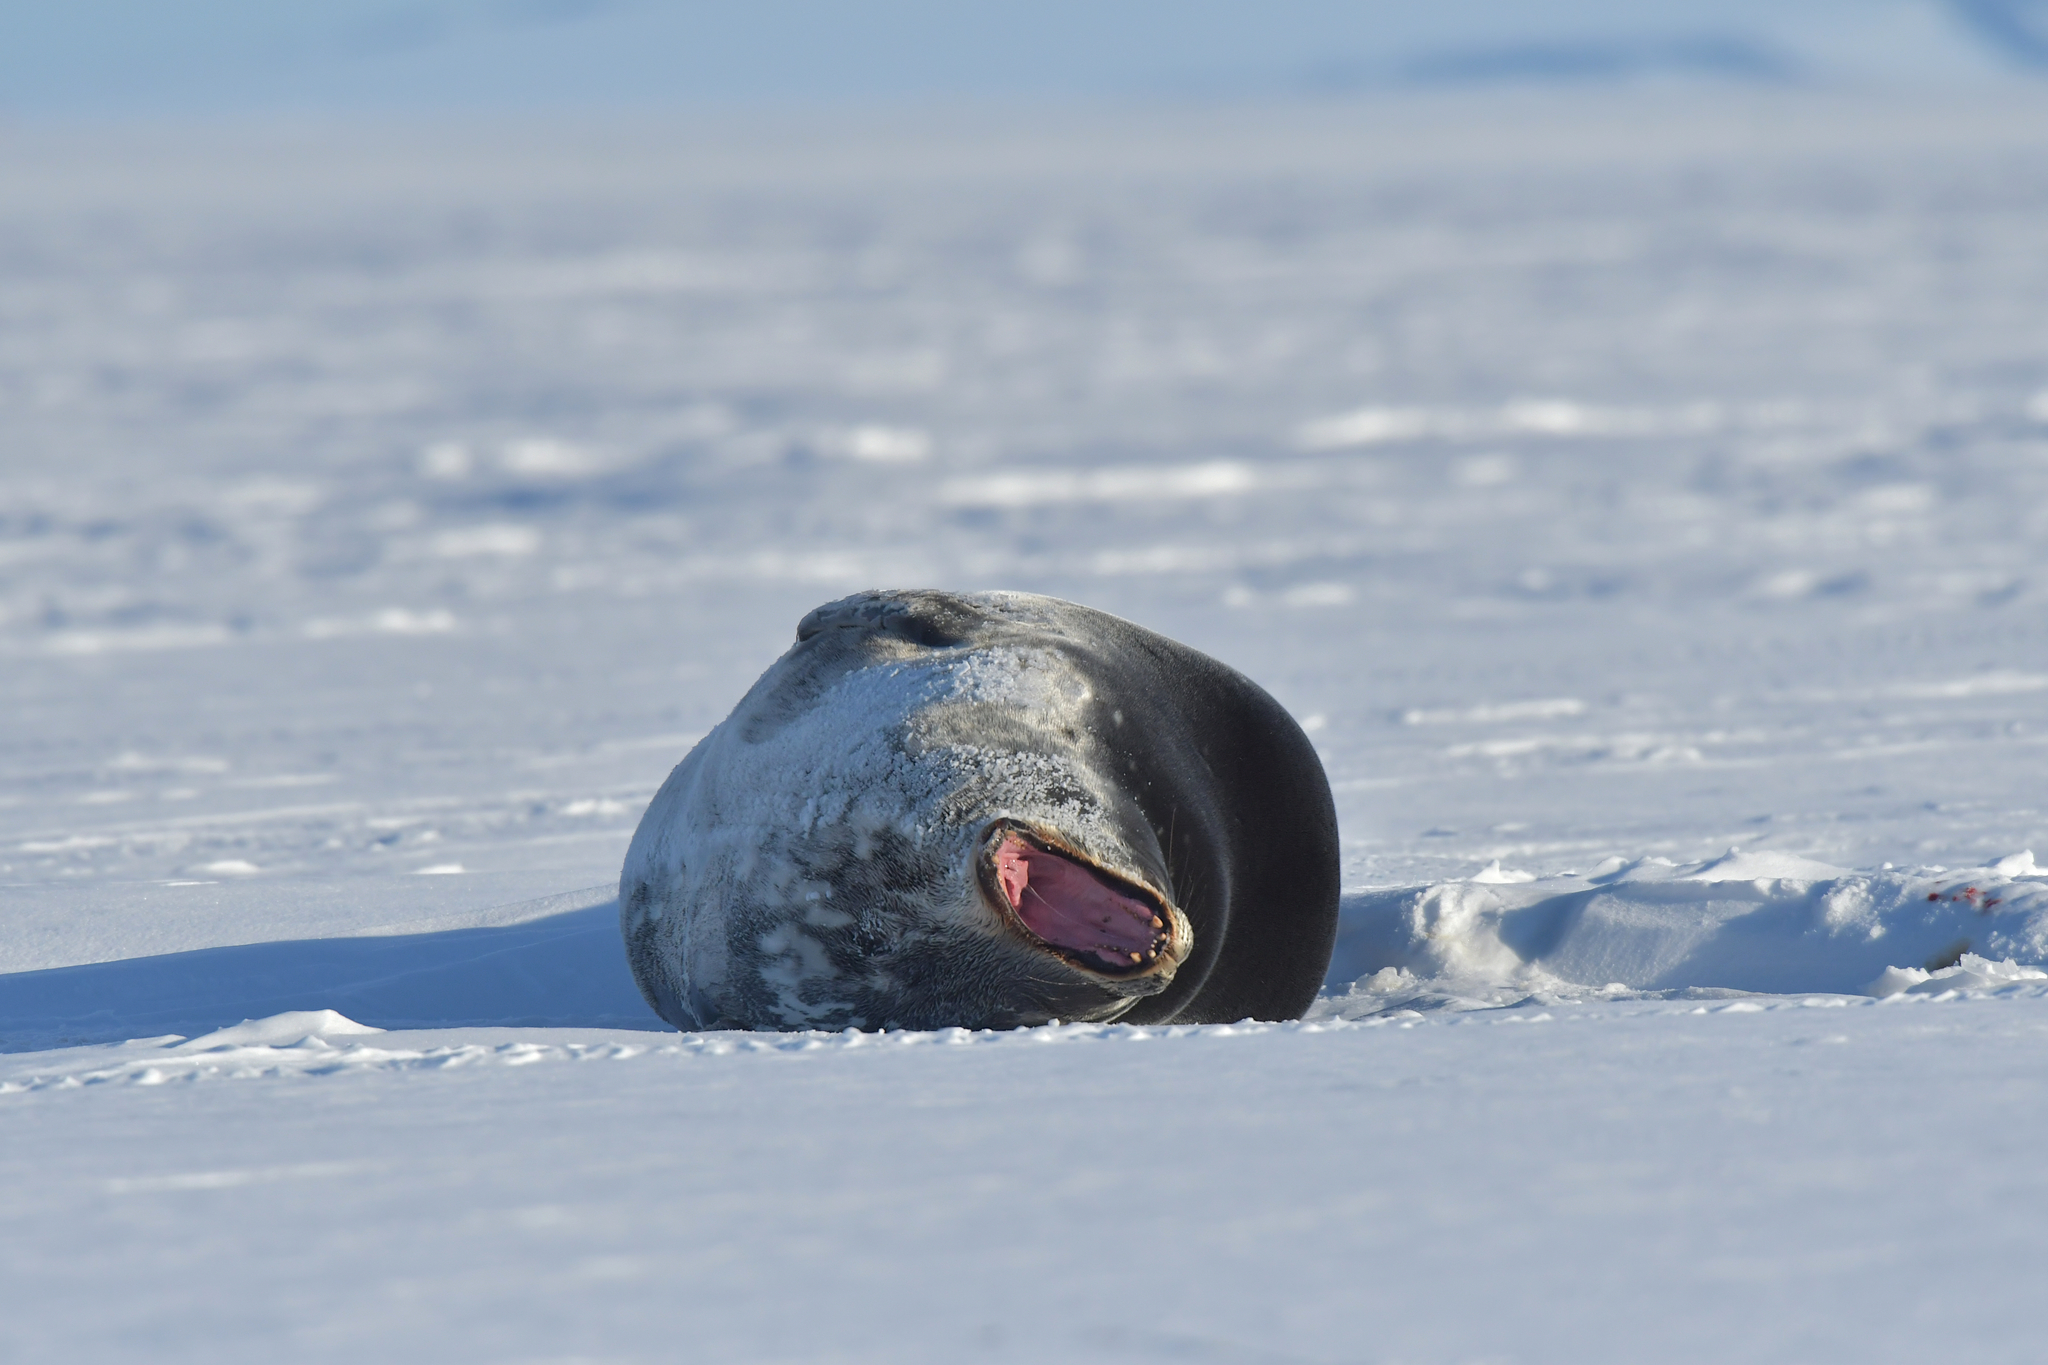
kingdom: Animalia
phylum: Chordata
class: Mammalia
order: Carnivora
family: Phocidae
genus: Leptonychotes
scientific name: Leptonychotes weddellii
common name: Weddell seal
